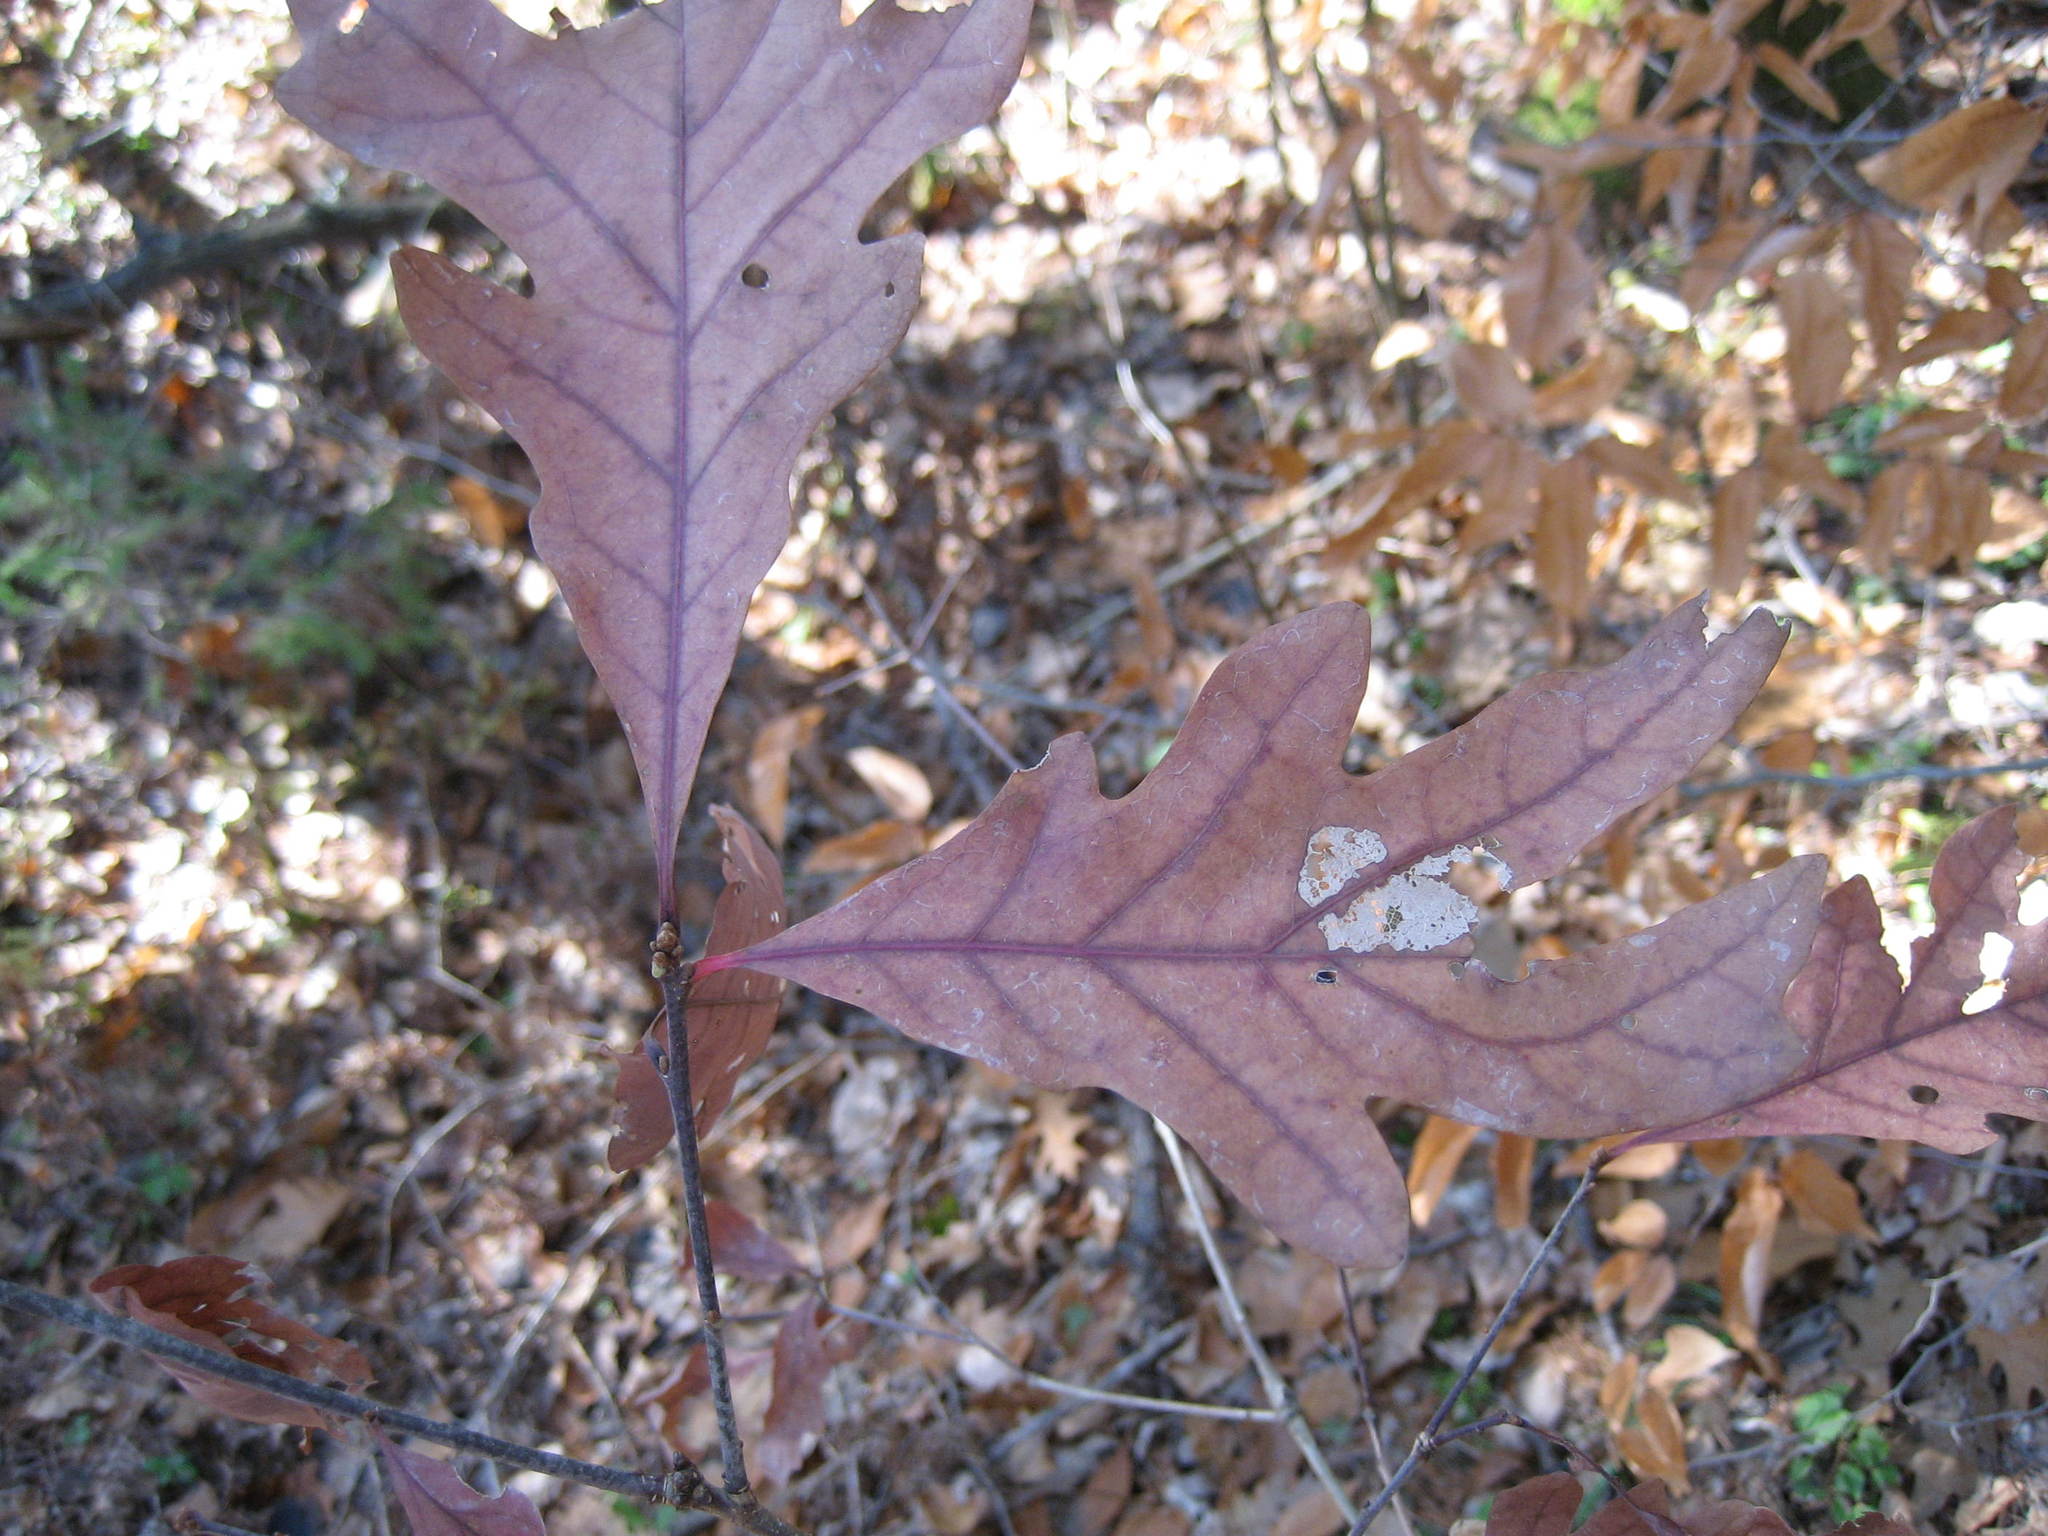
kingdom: Plantae
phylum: Tracheophyta
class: Magnoliopsida
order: Fagales
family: Fagaceae
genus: Quercus
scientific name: Quercus alba
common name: White oak
